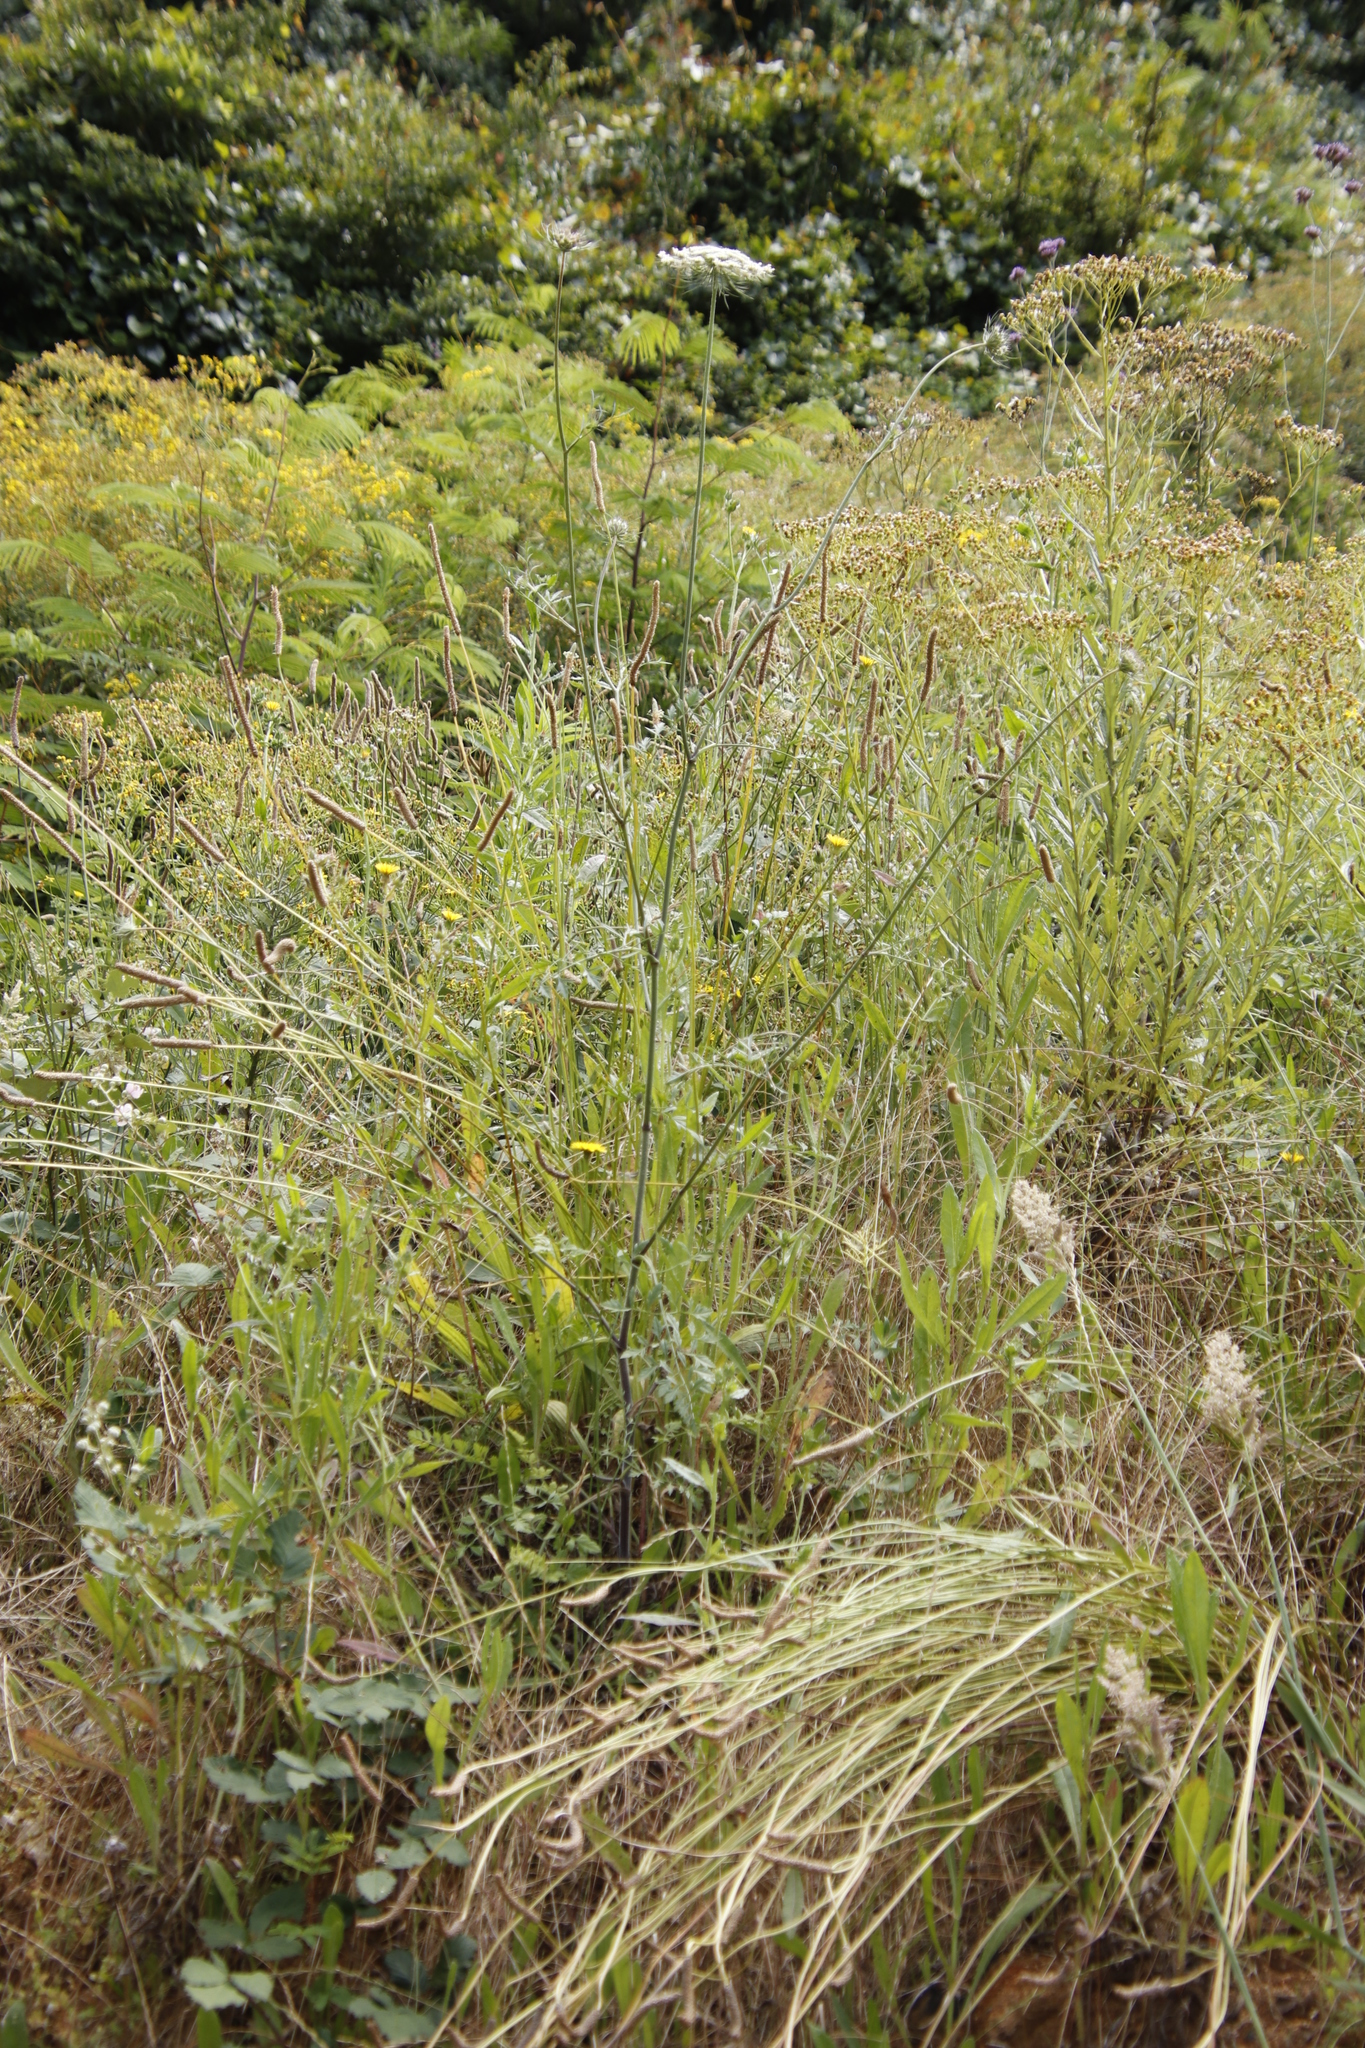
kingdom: Plantae
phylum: Tracheophyta
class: Magnoliopsida
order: Apiales
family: Apiaceae
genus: Daucus
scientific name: Daucus carota
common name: Wild carrot
